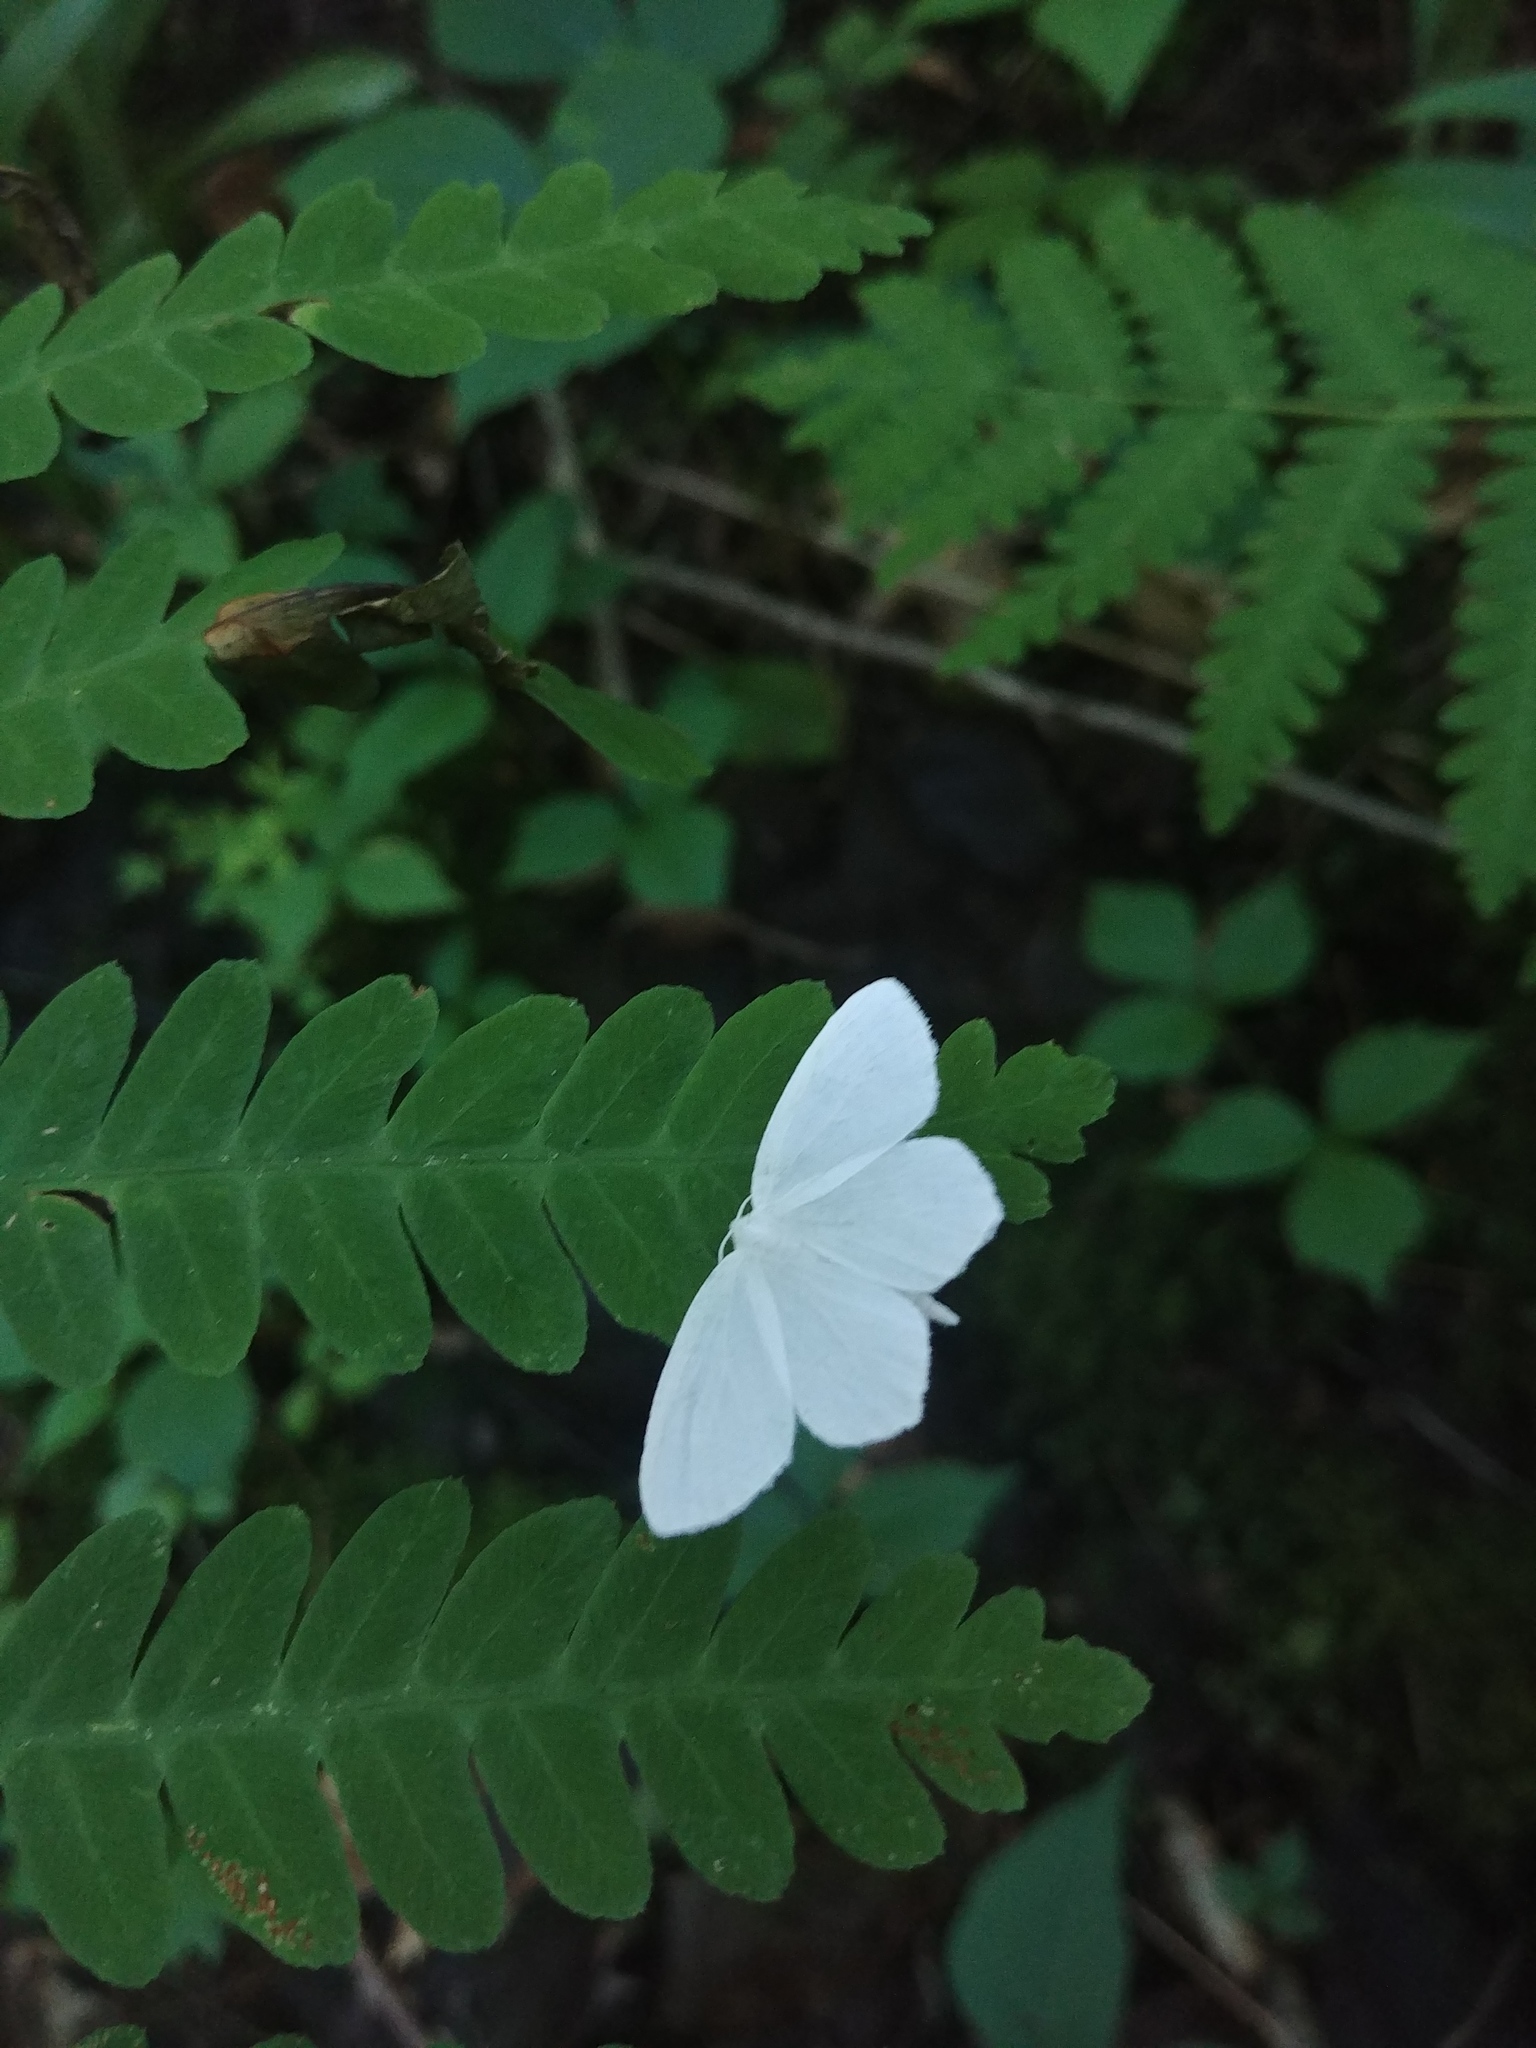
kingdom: Animalia
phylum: Arthropoda
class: Insecta
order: Lepidoptera
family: Geometridae
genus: Eugonobapta
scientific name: Eugonobapta nivosaria
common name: Snowy geometer
